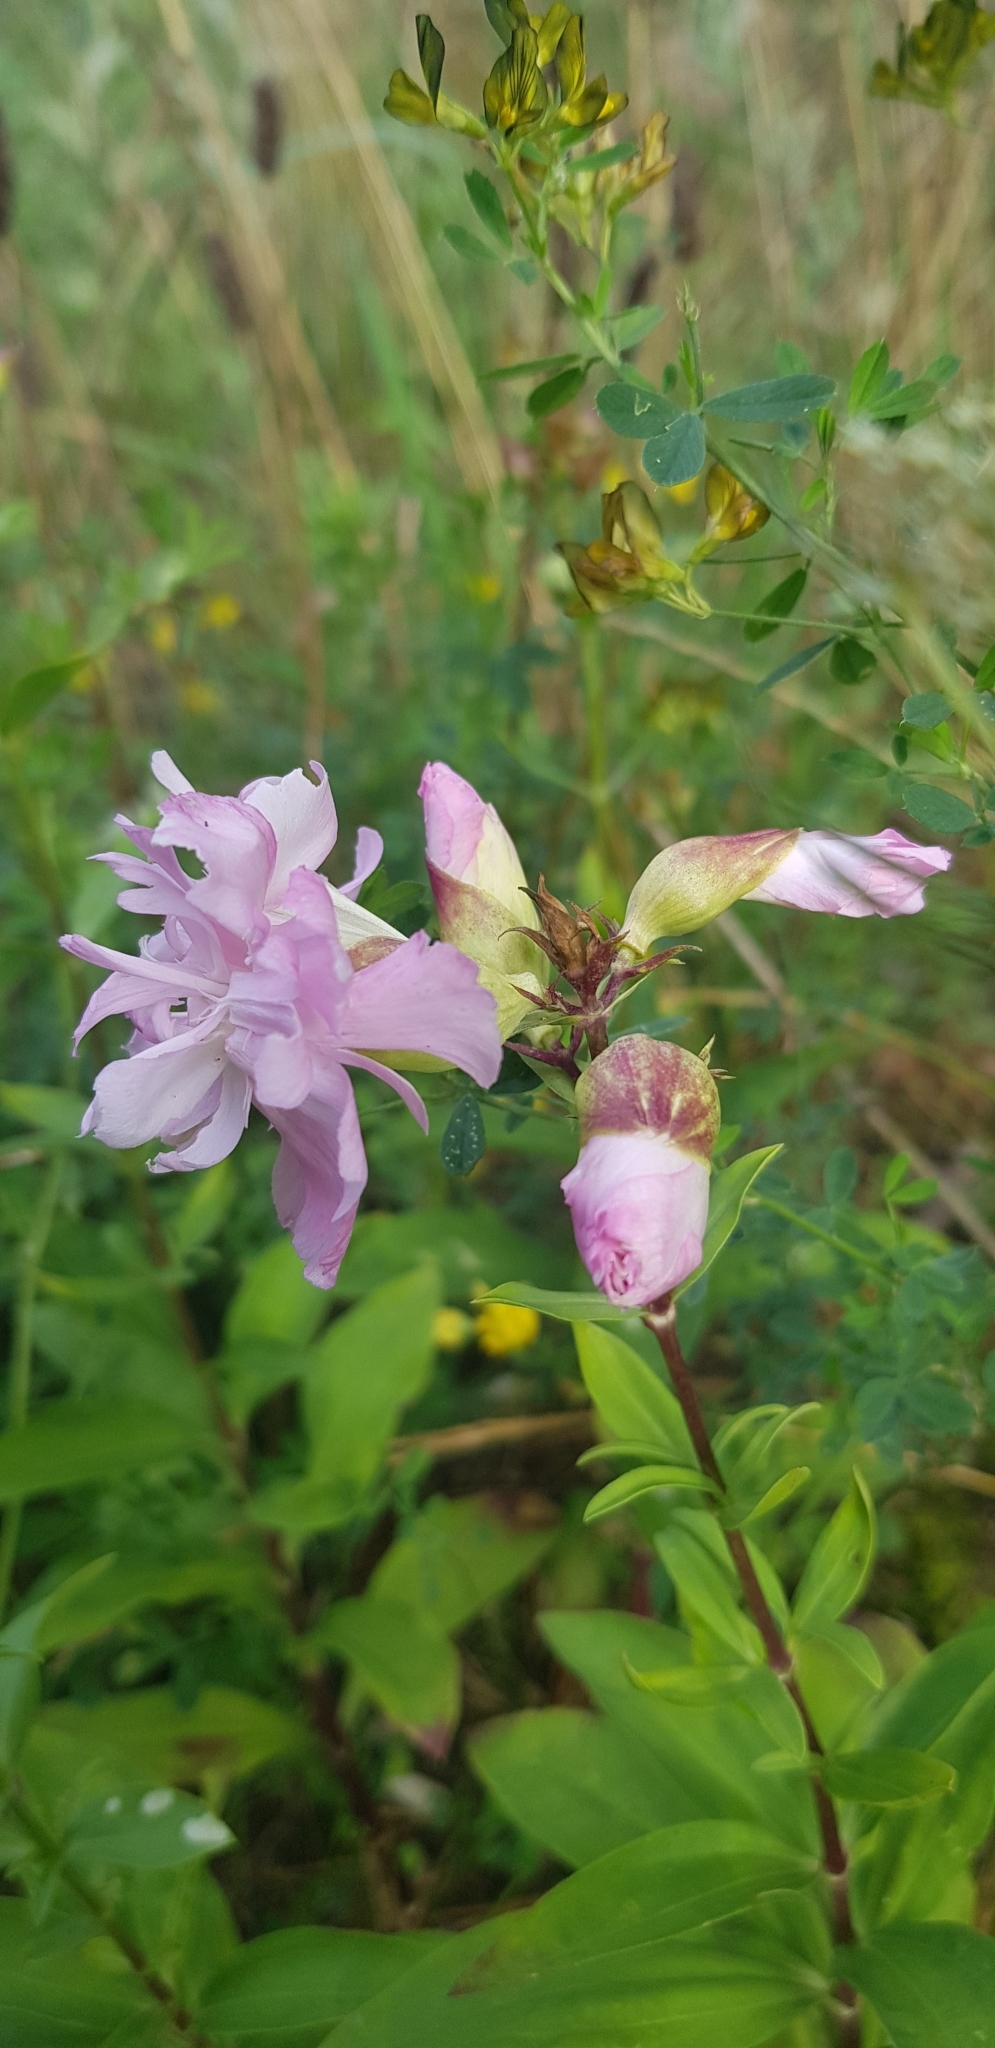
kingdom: Plantae
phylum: Tracheophyta
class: Magnoliopsida
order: Caryophyllales
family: Caryophyllaceae
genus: Saponaria
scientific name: Saponaria officinalis
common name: Soapwort
